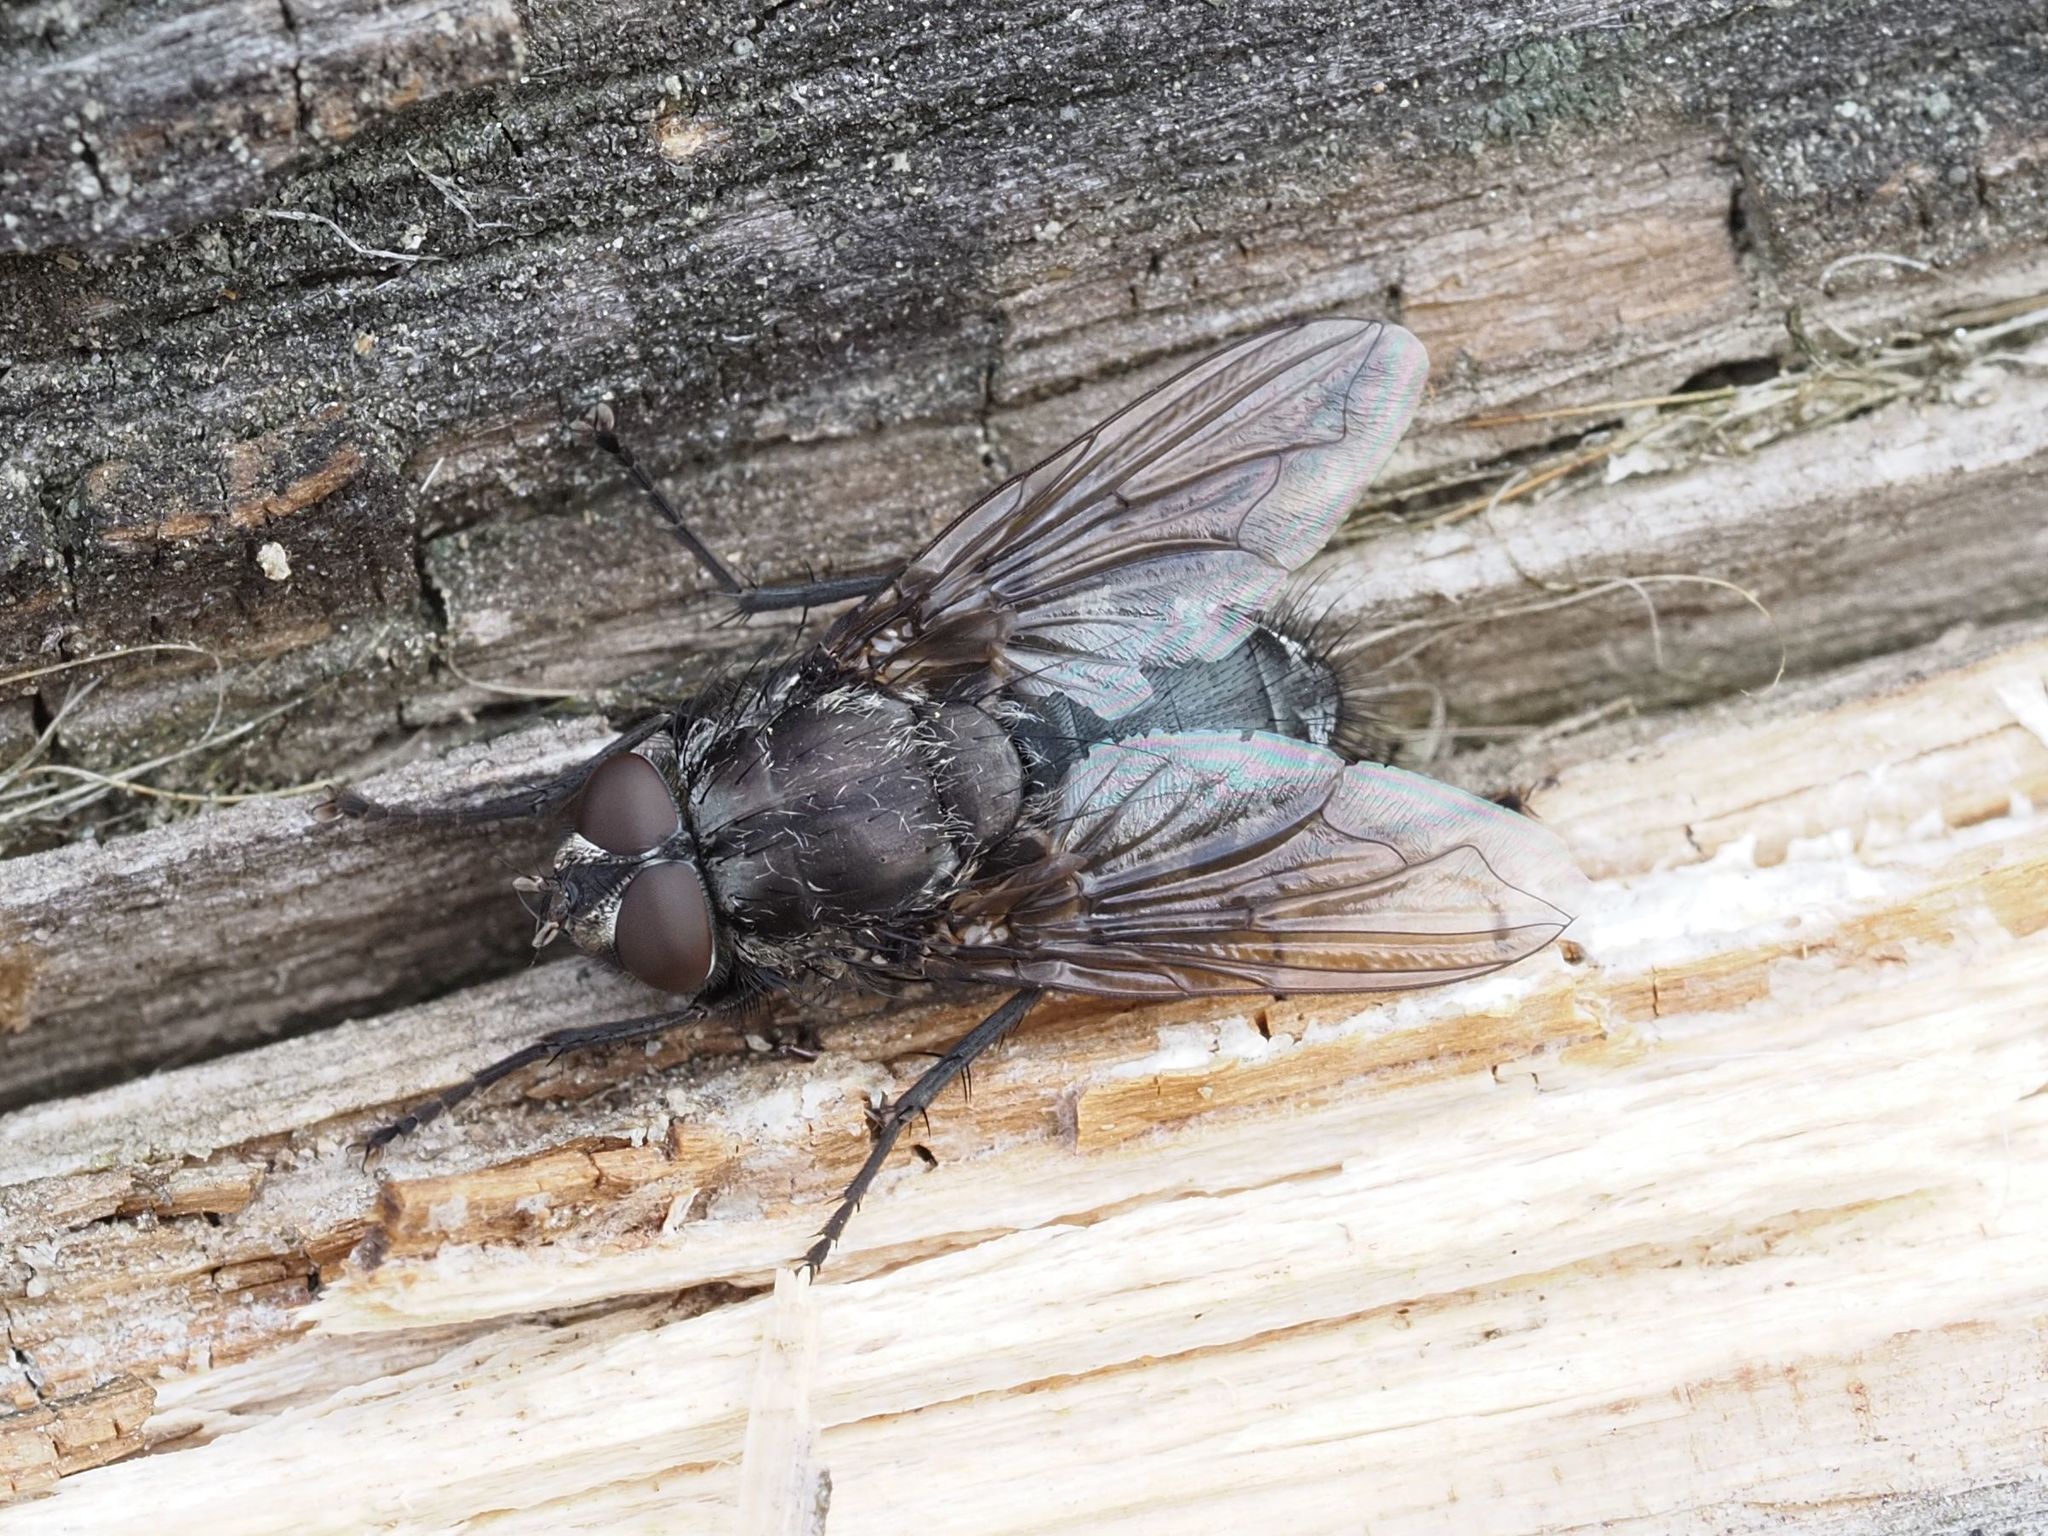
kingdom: Animalia
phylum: Arthropoda
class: Insecta
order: Diptera
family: Polleniidae
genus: Pollenia
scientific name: Pollenia vagabunda
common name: Vagabund cluster fly
